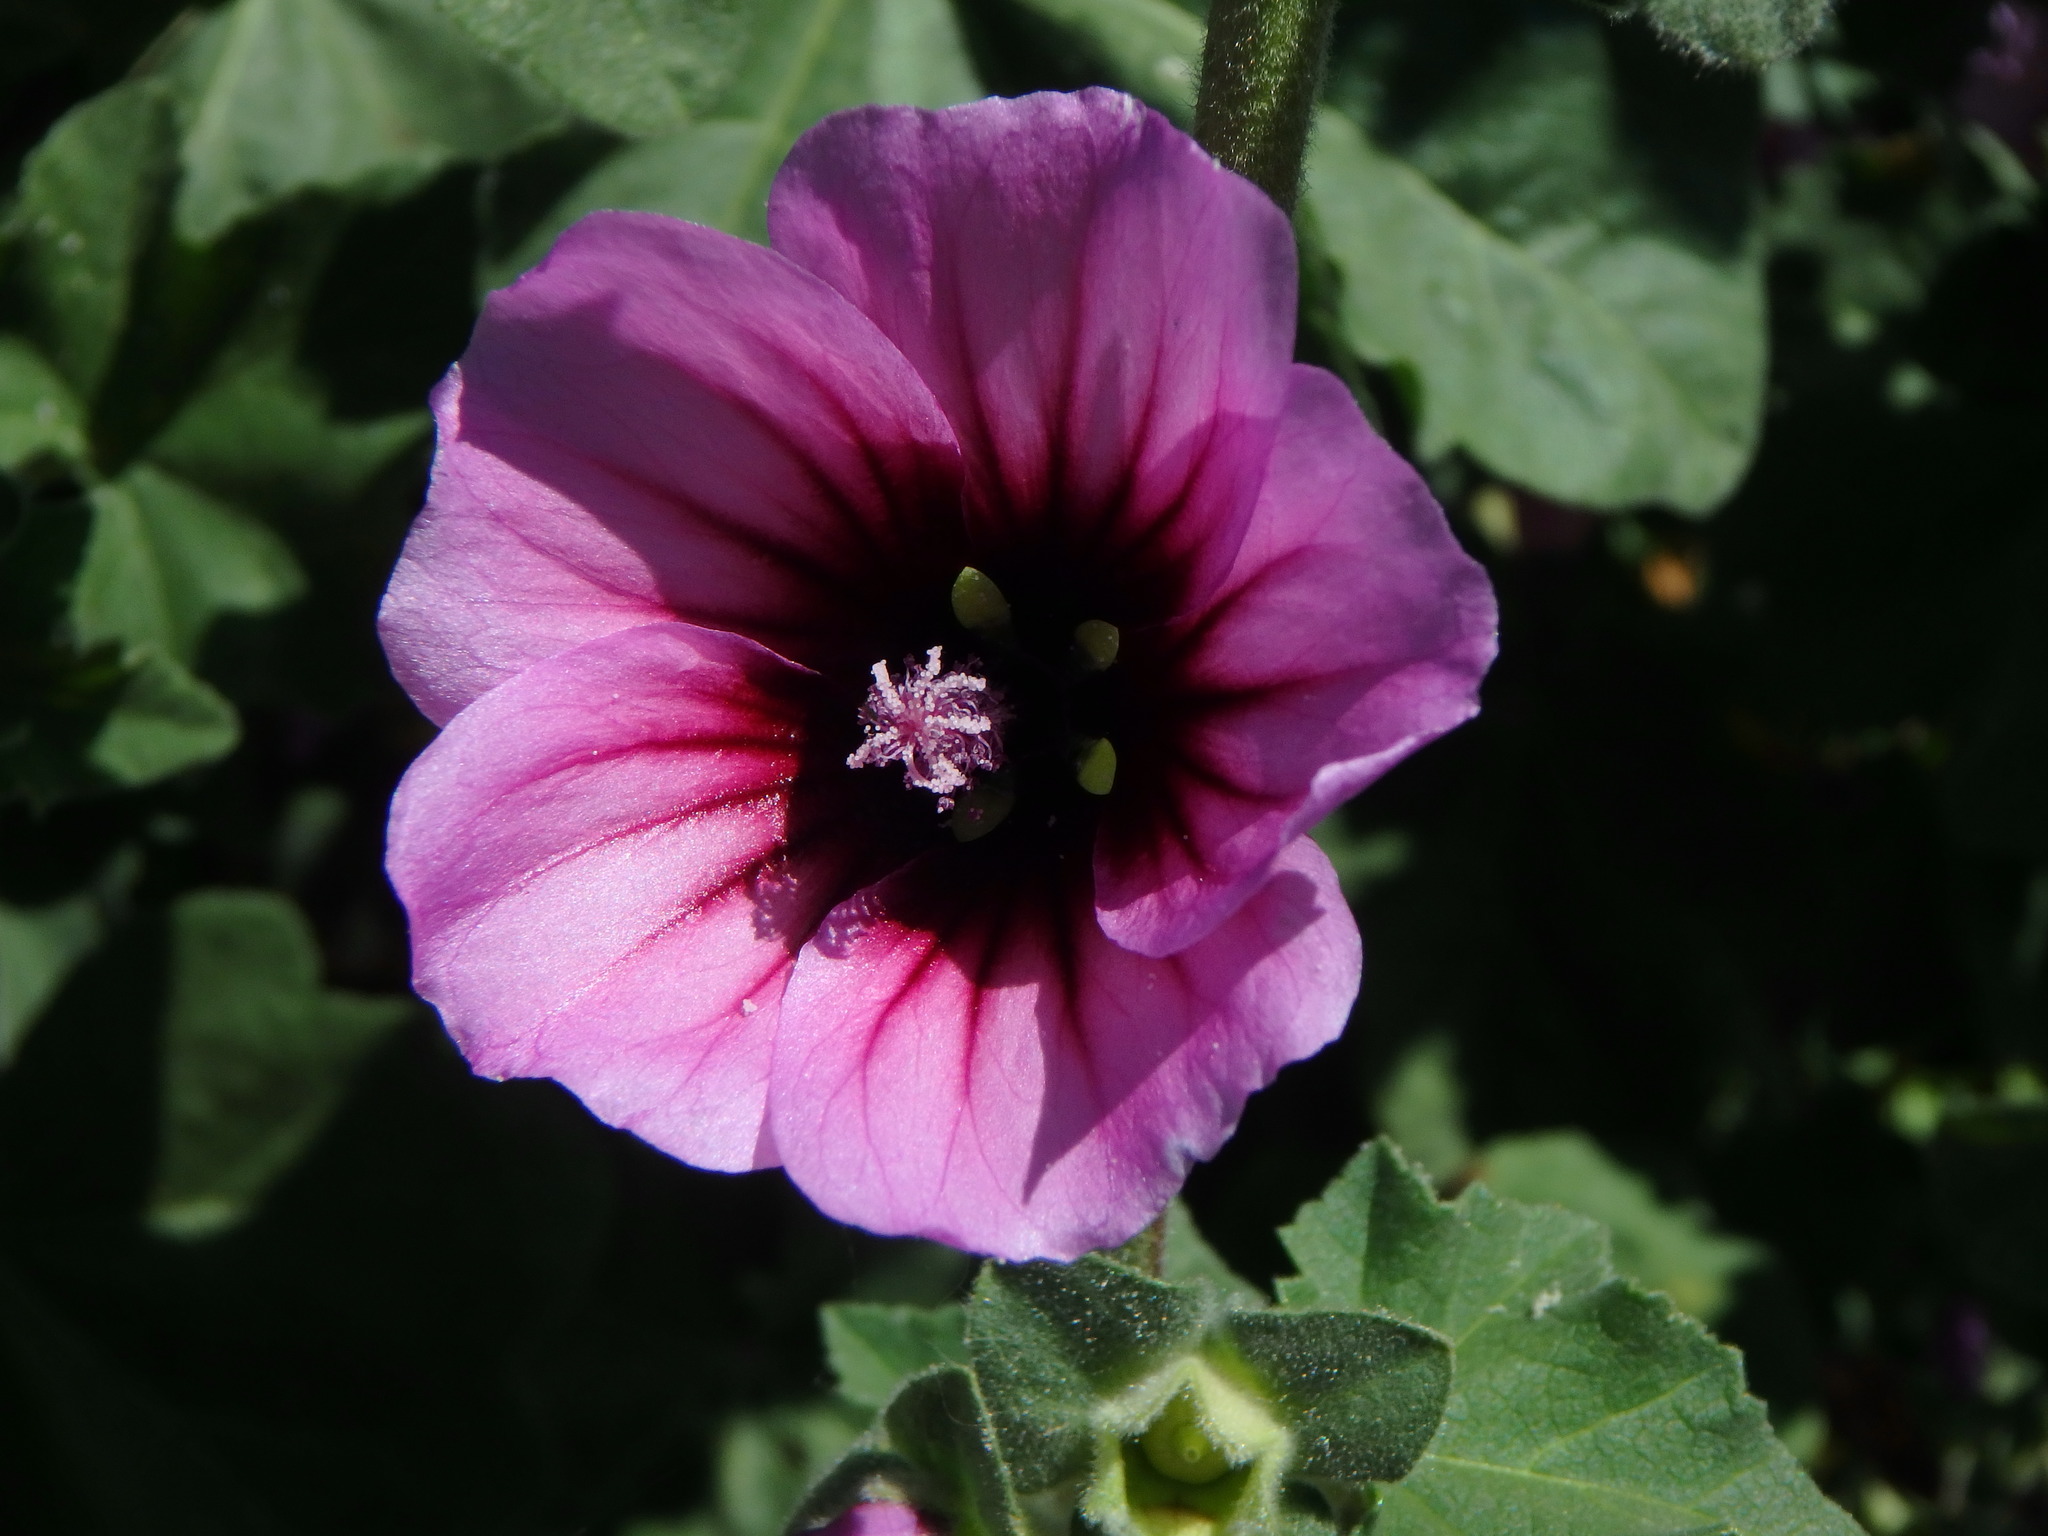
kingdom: Plantae
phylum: Tracheophyta
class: Magnoliopsida
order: Malvales
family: Malvaceae
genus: Malva
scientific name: Malva arborea
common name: Tree mallow
